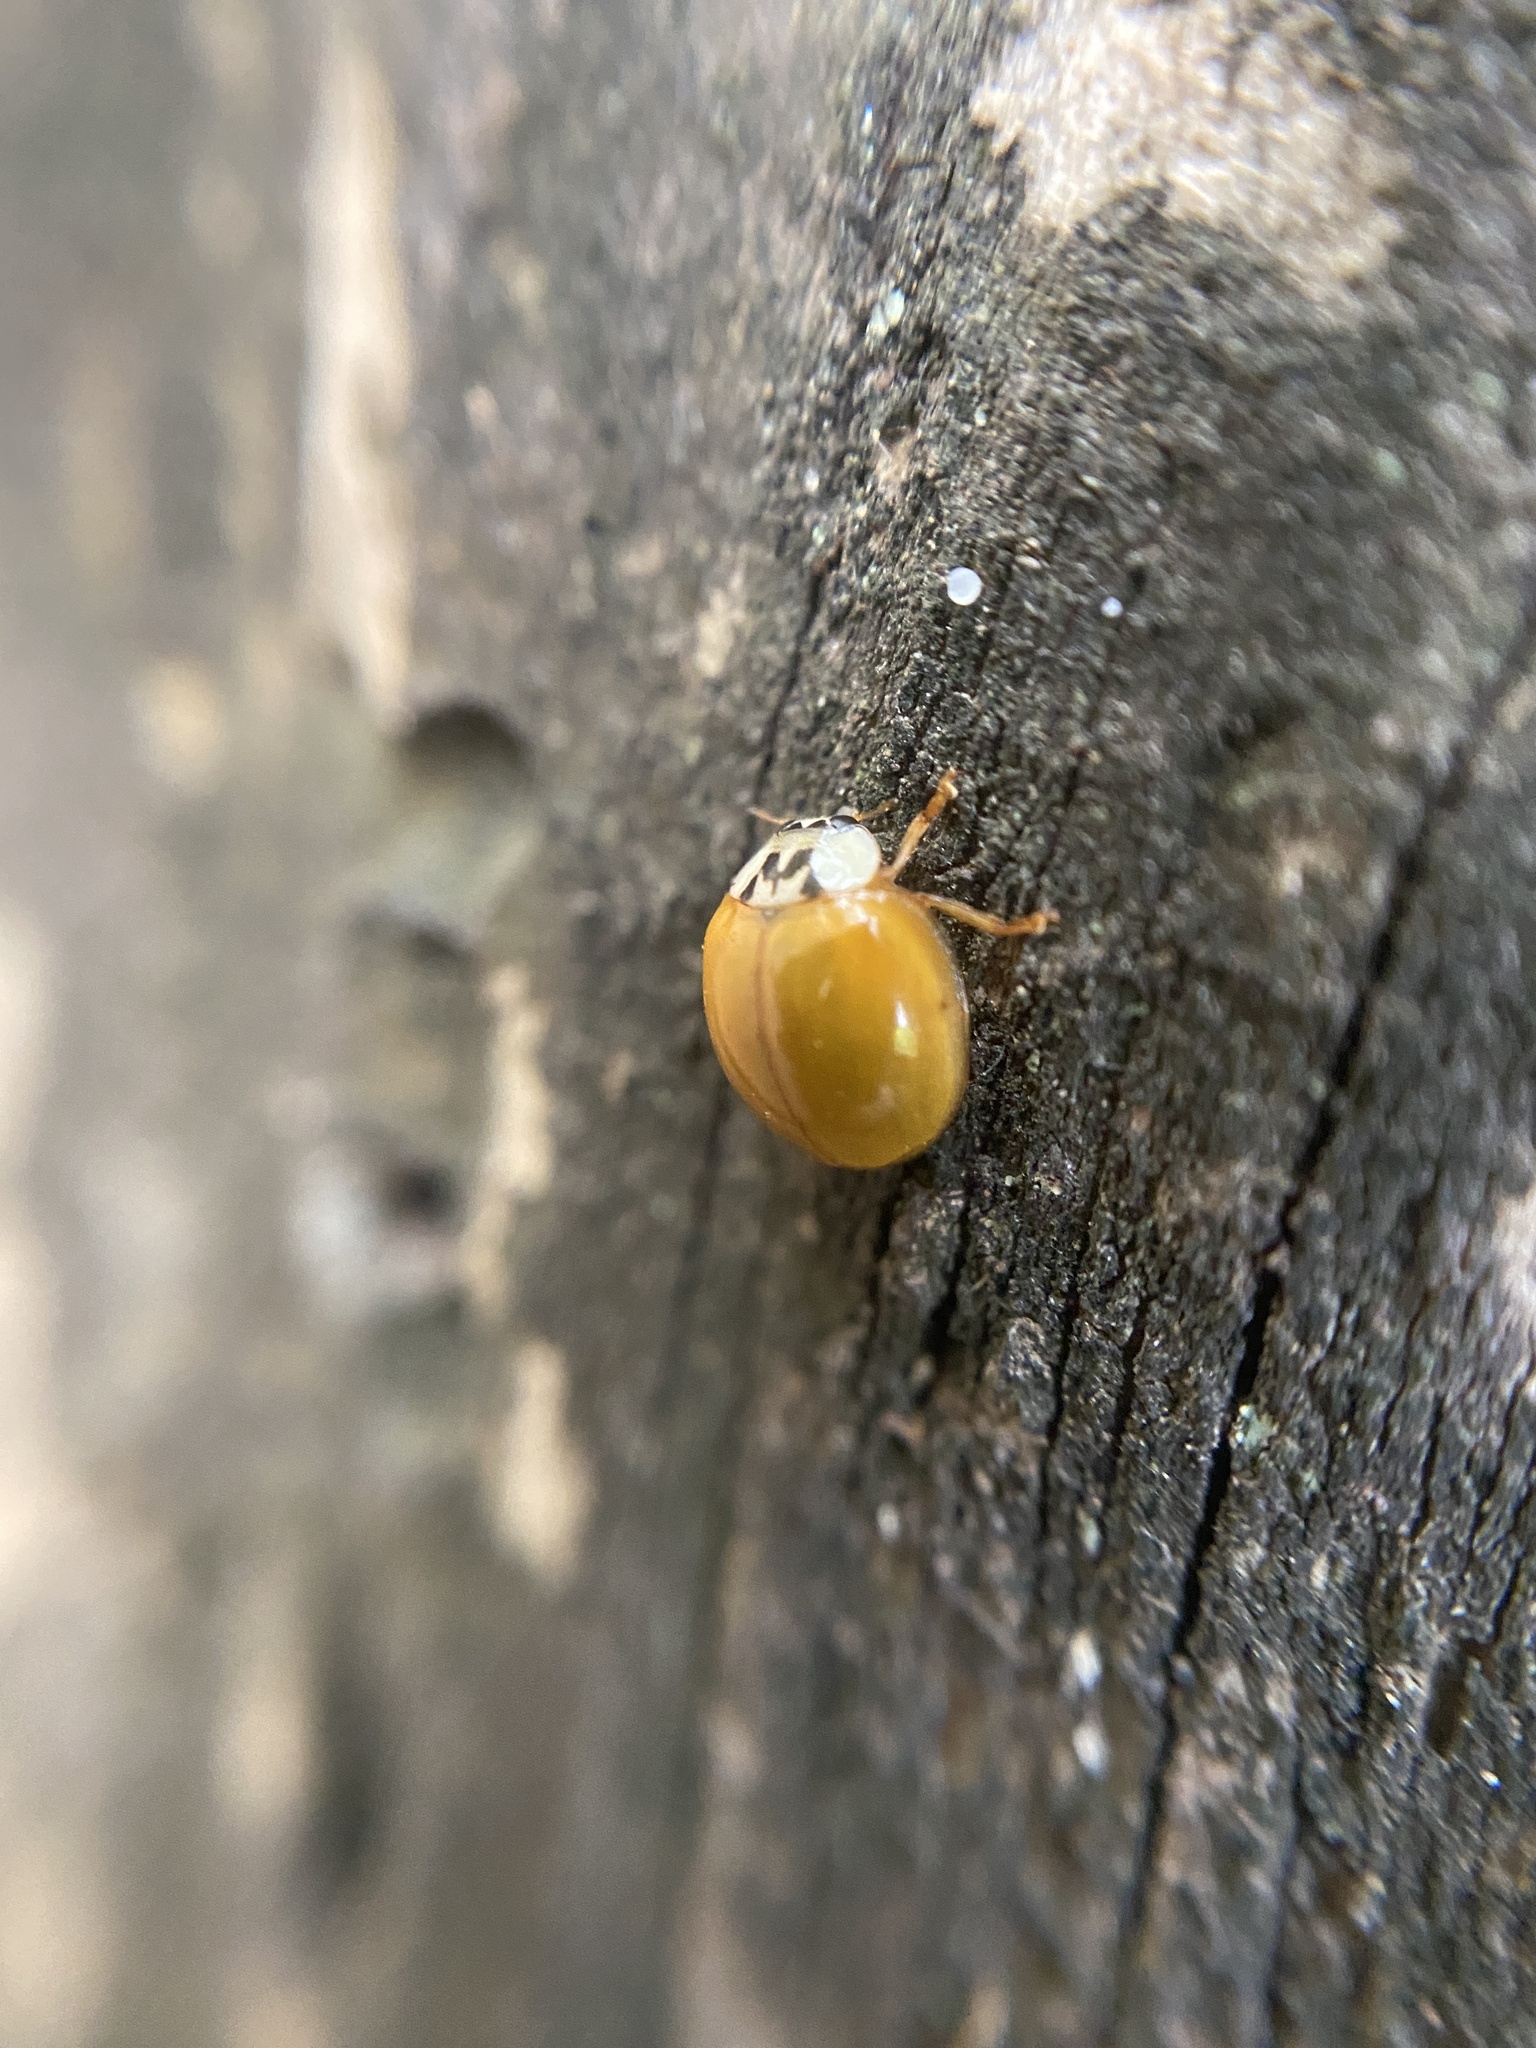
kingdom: Animalia
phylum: Arthropoda
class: Insecta
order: Coleoptera
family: Coccinellidae
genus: Harmonia
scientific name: Harmonia axyridis
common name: Harlequin ladybird
